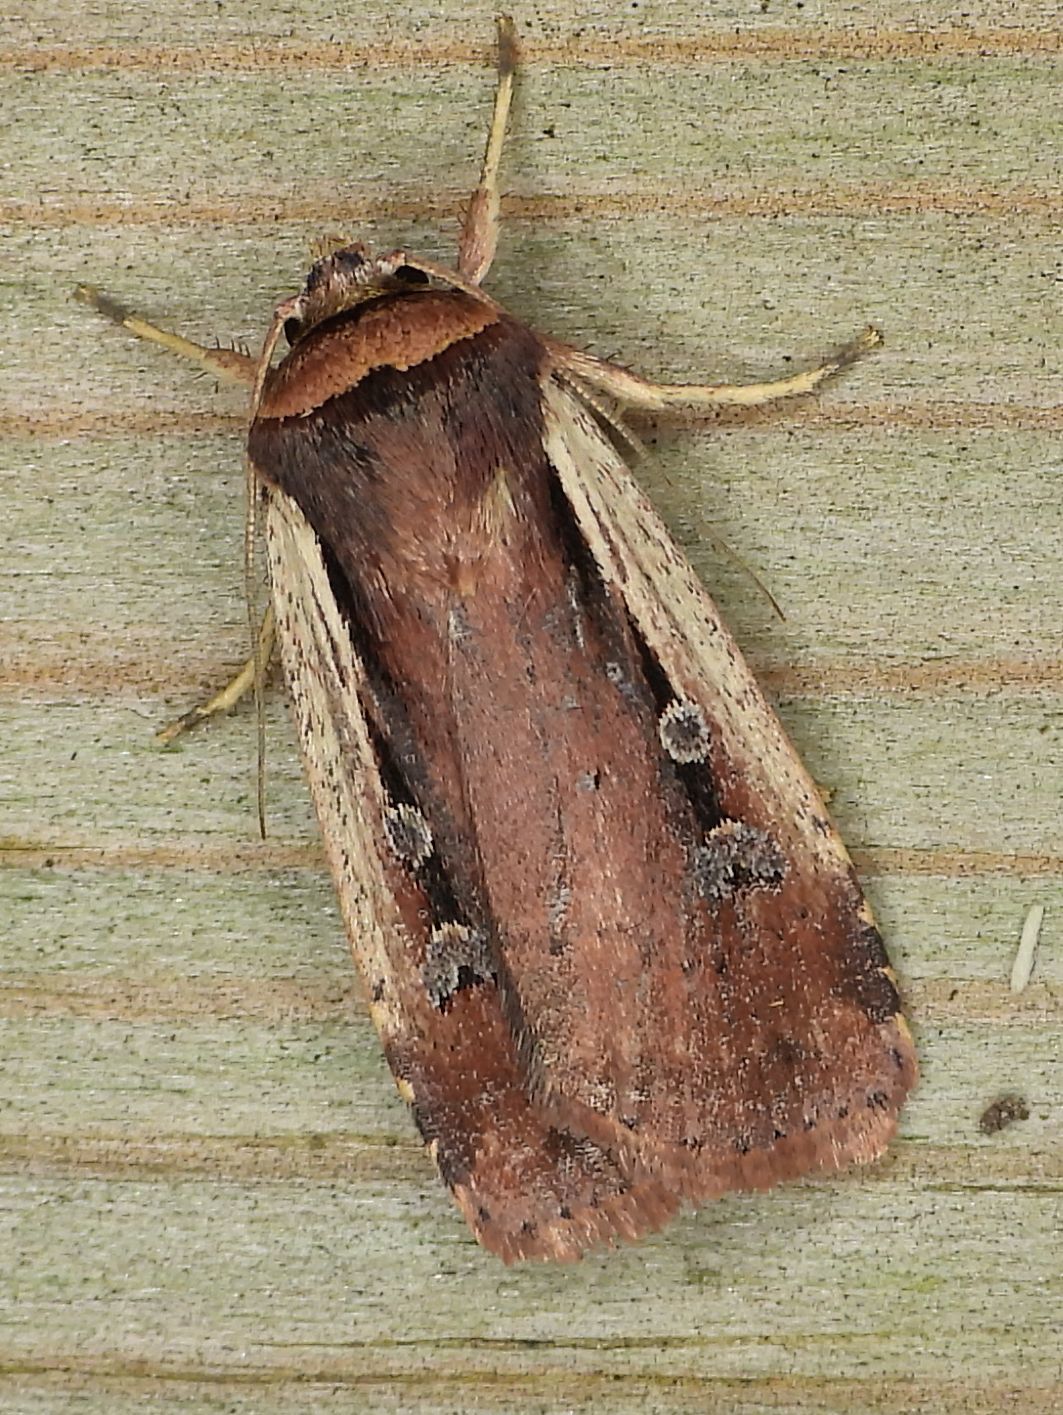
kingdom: Animalia
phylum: Arthropoda
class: Insecta
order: Lepidoptera
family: Noctuidae
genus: Ochropleura
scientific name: Ochropleura implecta
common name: Flame-shouldered dart
